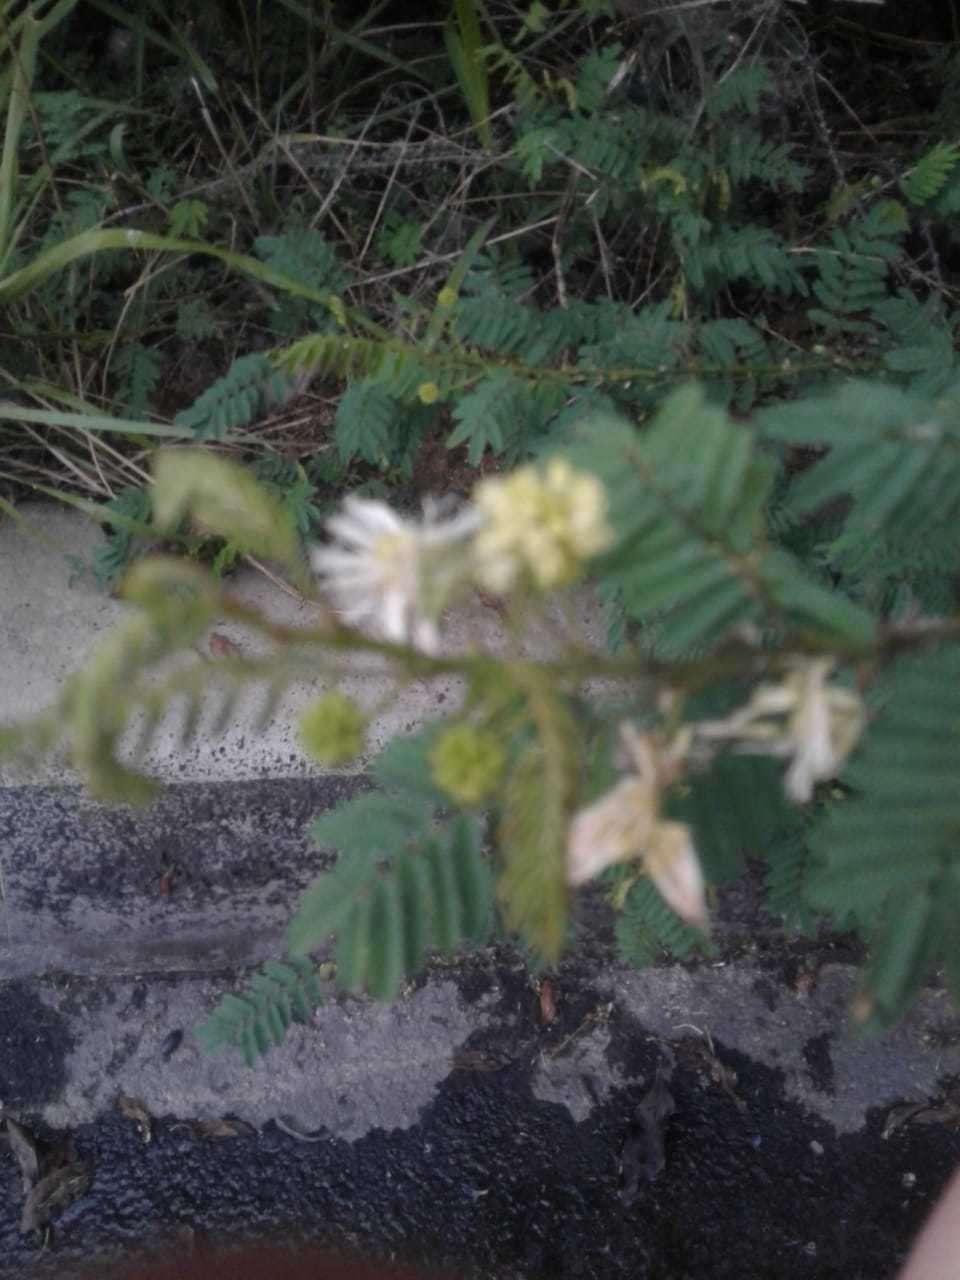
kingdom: Plantae
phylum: Tracheophyta
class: Magnoliopsida
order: Fabales
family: Fabaceae
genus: Mimosa
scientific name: Mimosa quitensis
